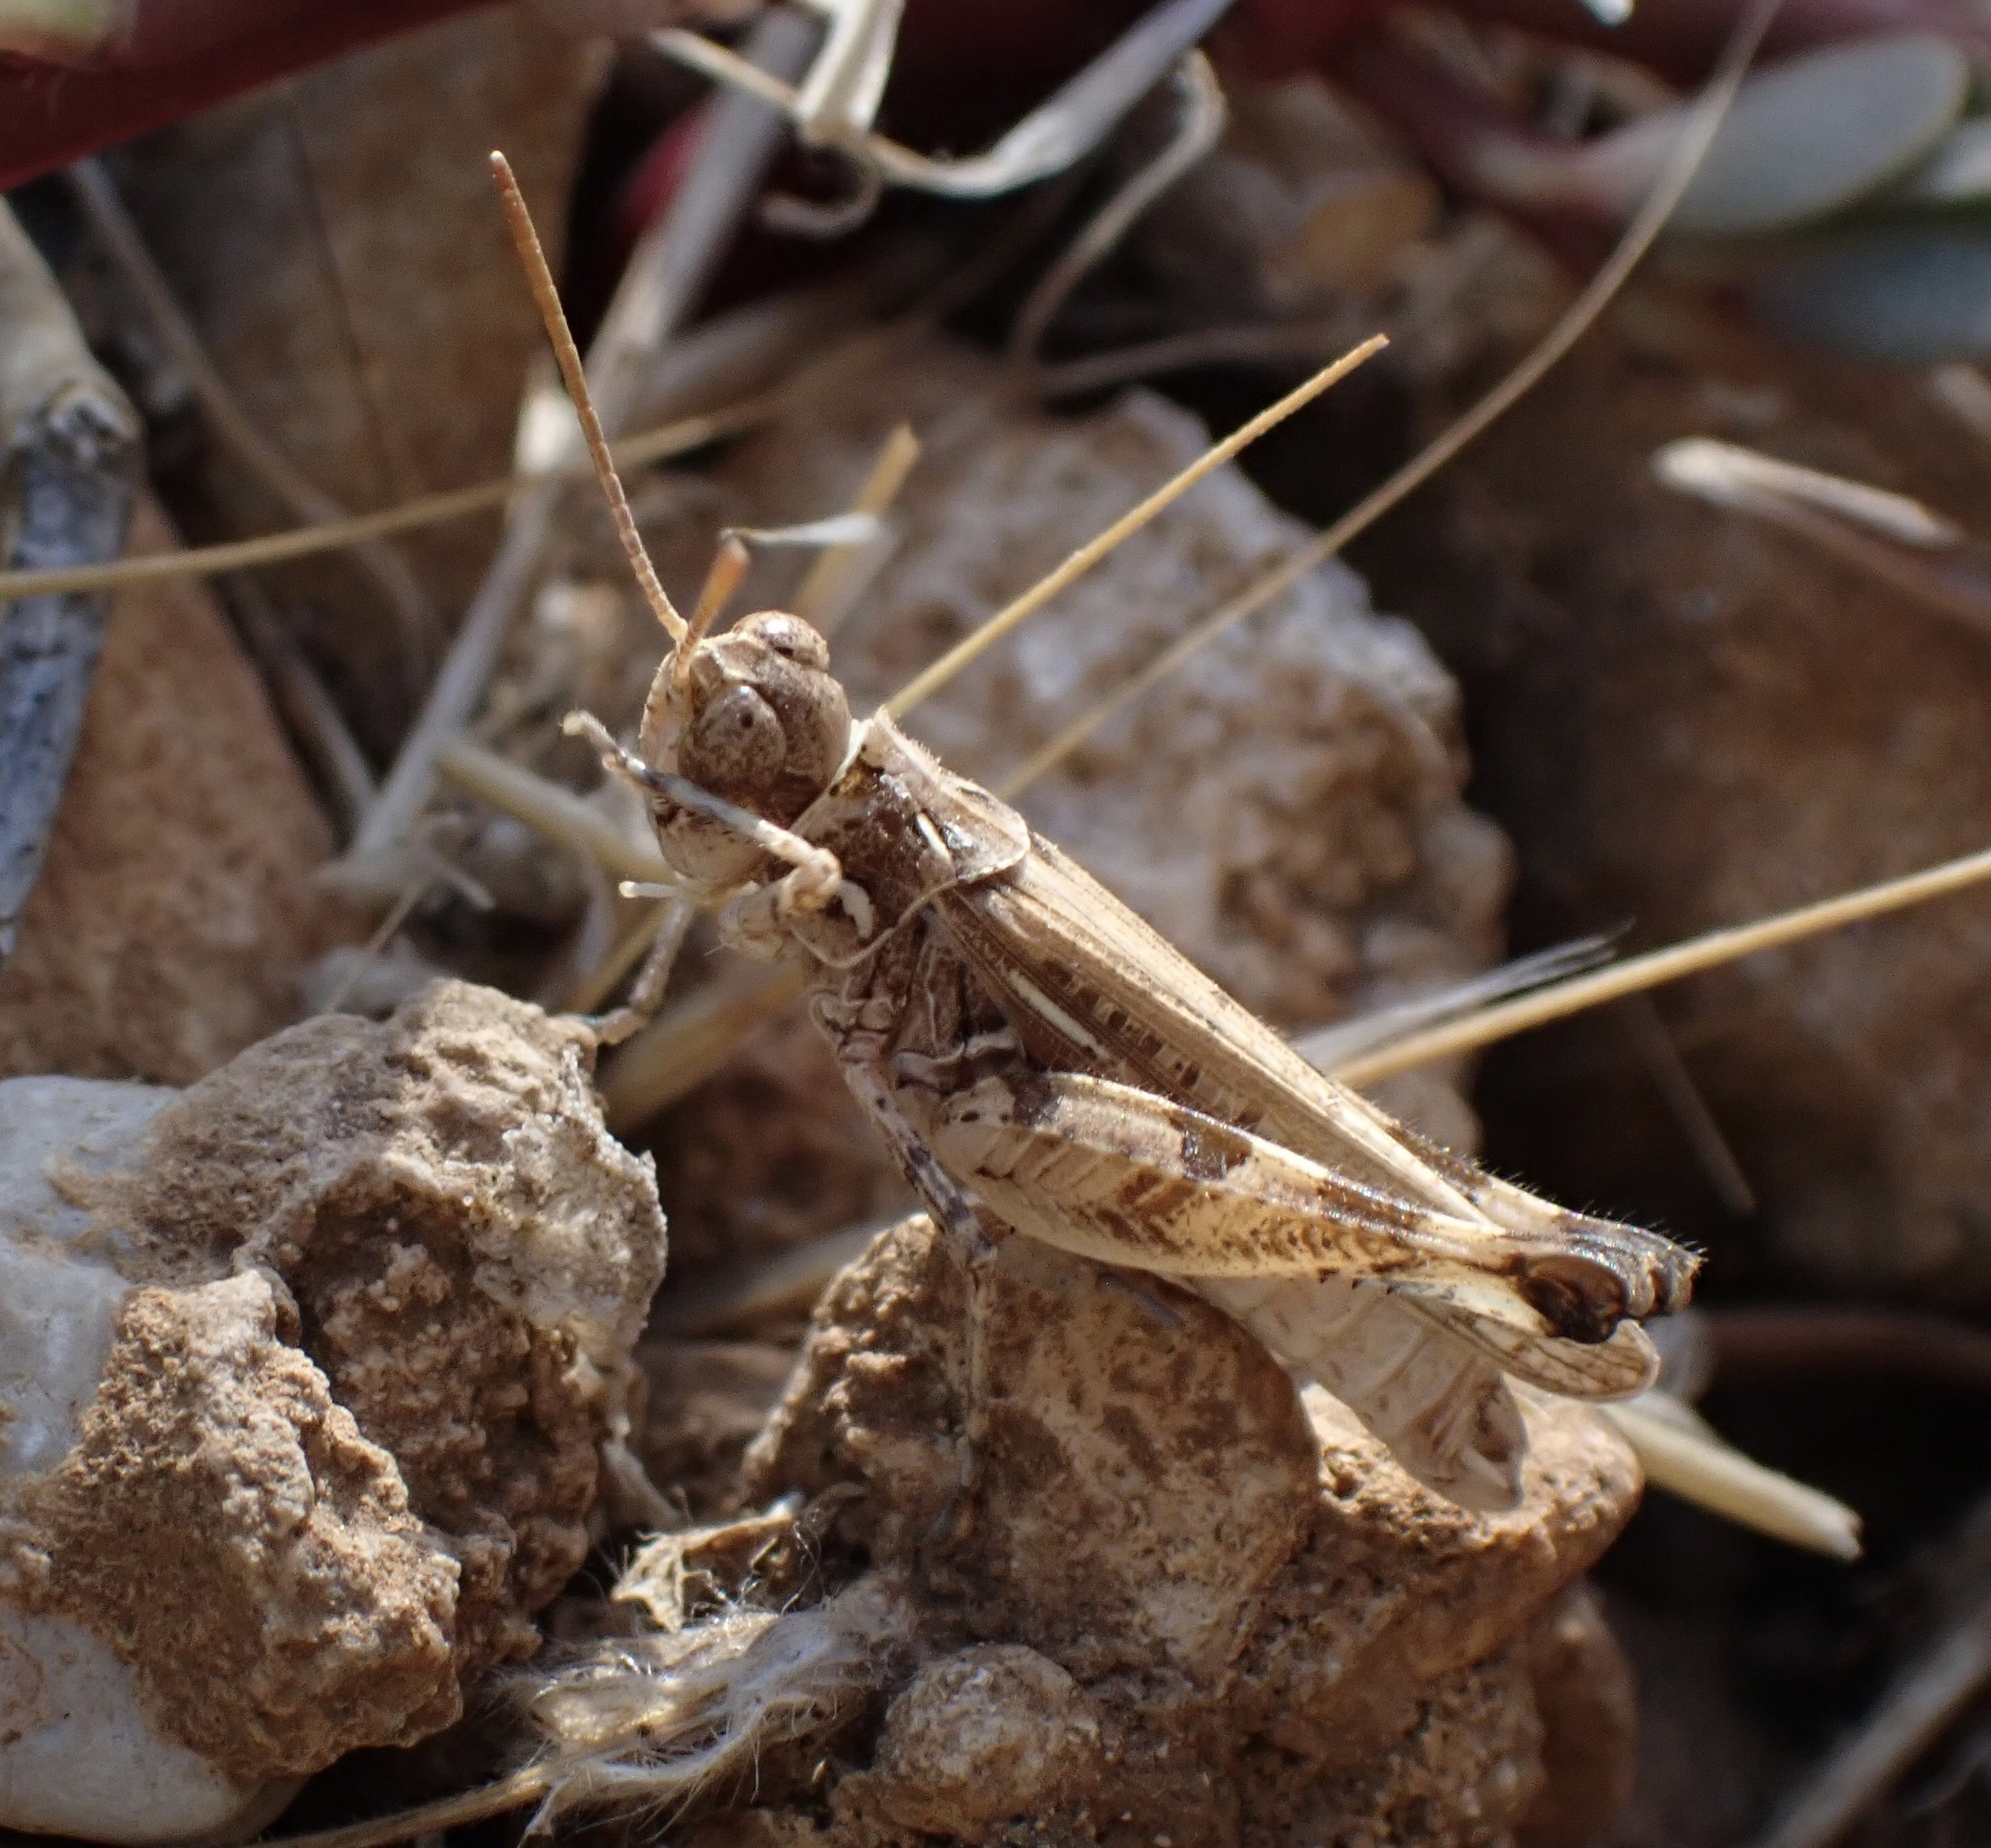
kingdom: Animalia
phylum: Arthropoda
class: Insecta
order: Orthoptera
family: Acrididae
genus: Dociostaurus
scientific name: Dociostaurus genei
